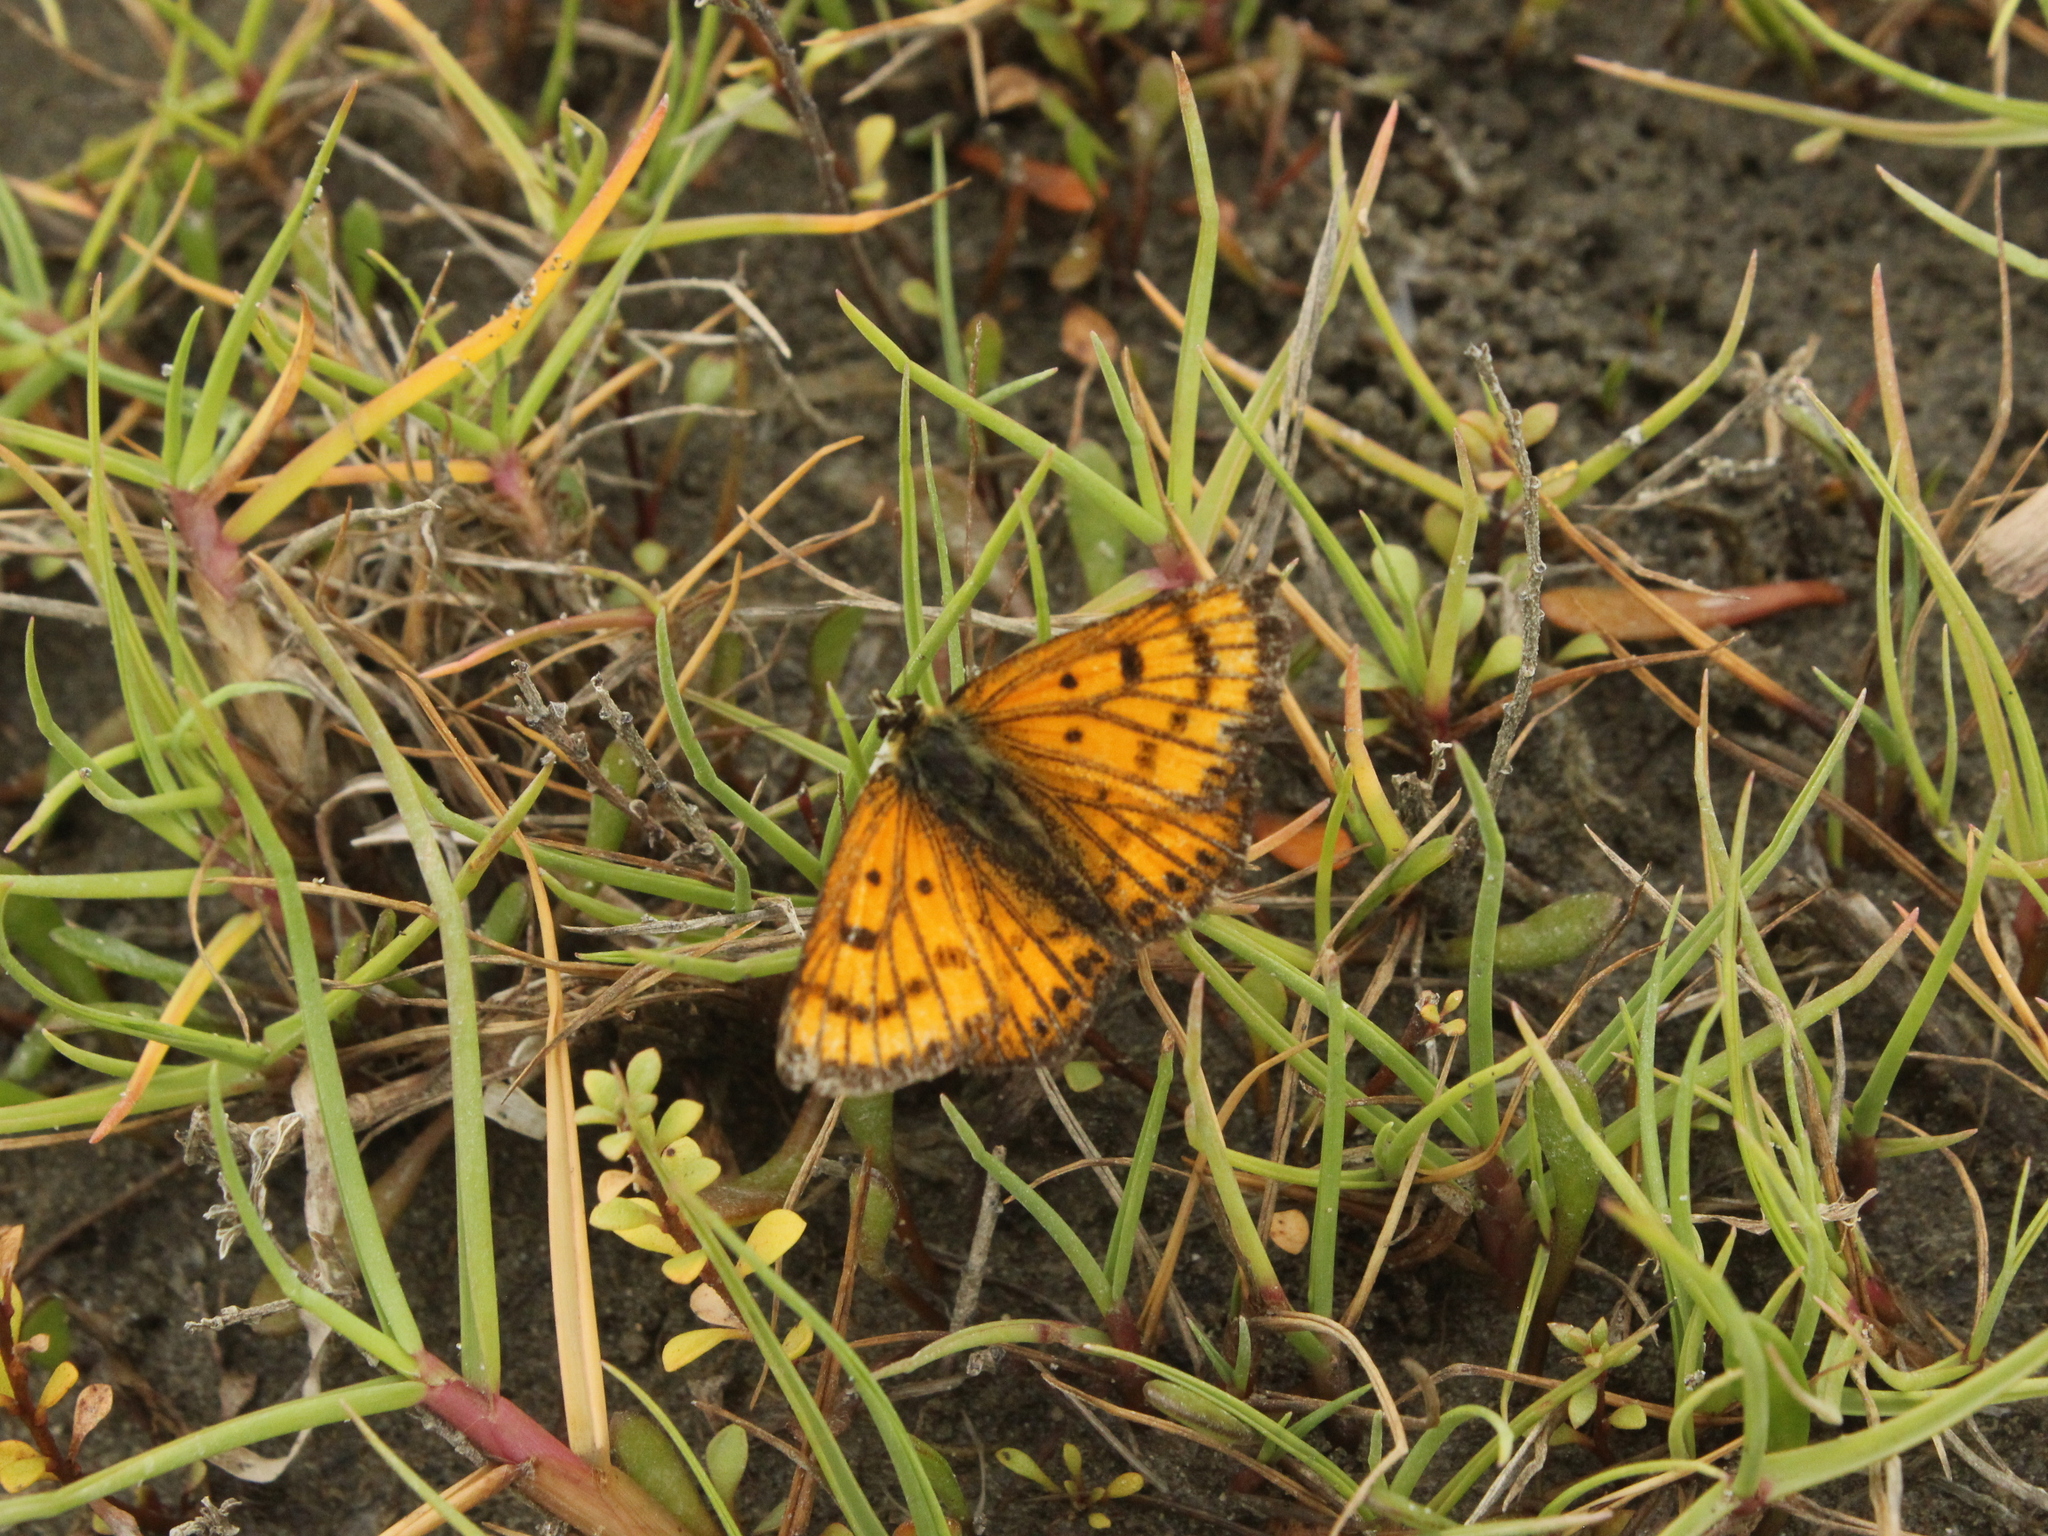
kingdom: Animalia
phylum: Arthropoda
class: Insecta
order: Lepidoptera
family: Lycaenidae
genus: Lycaena
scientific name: Lycaena salustius
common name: North island coastal copper
